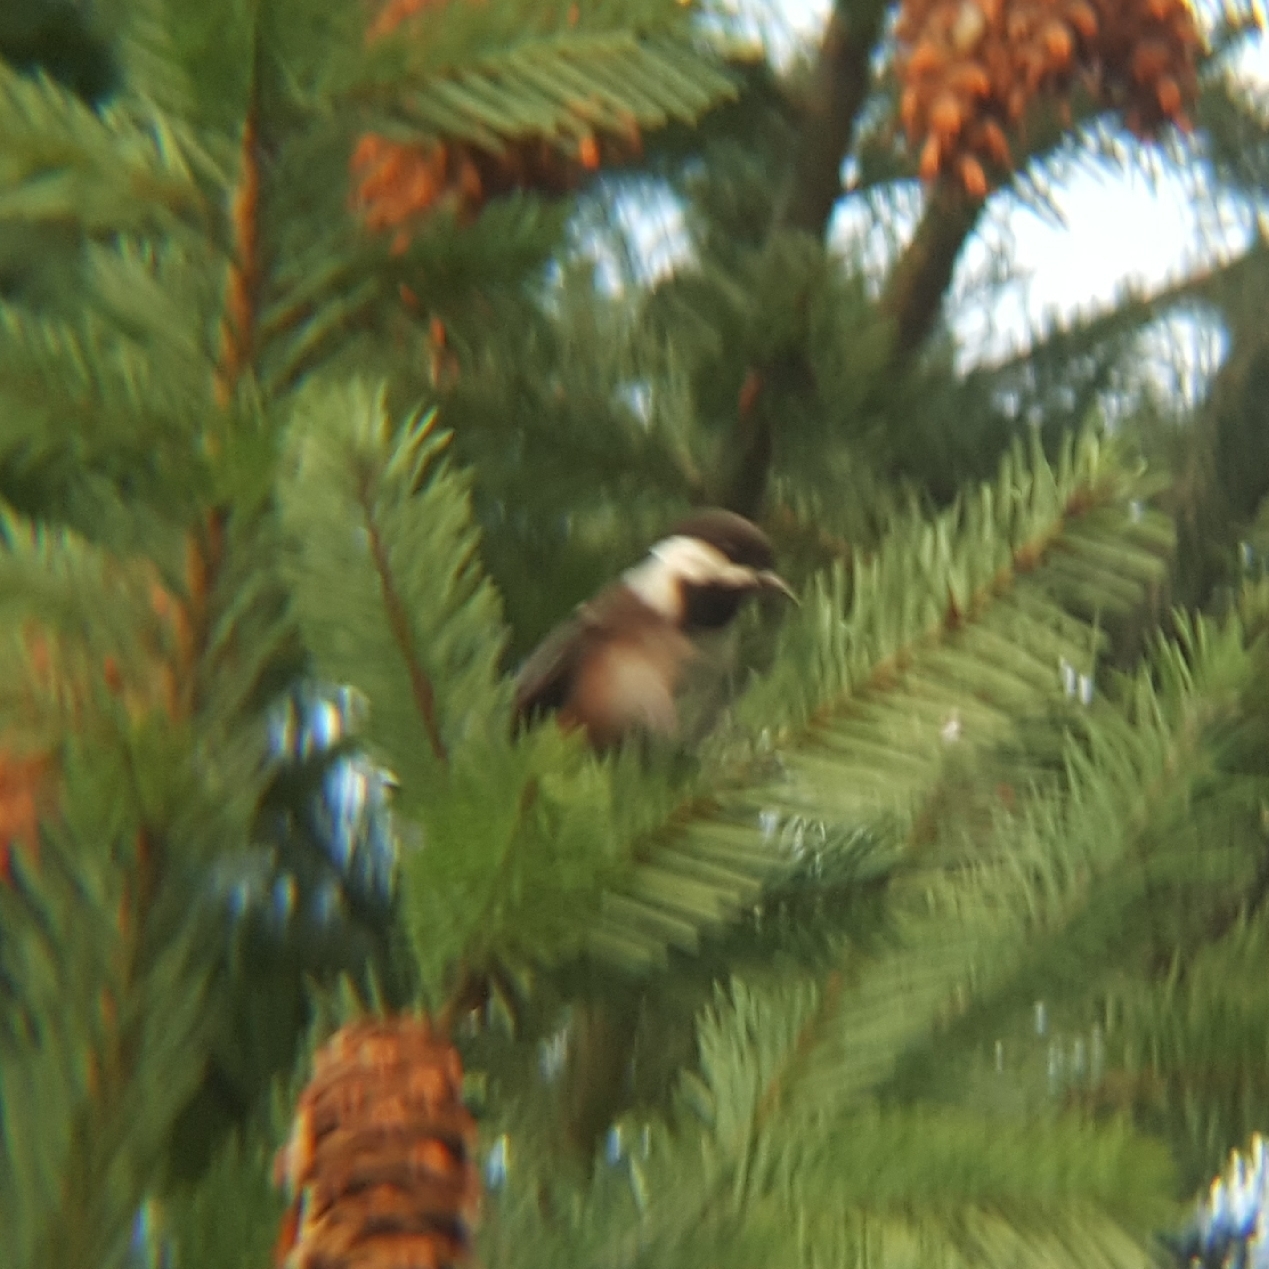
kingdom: Animalia
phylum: Chordata
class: Aves
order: Passeriformes
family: Paridae
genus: Poecile
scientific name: Poecile rufescens
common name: Chestnut-backed chickadee
